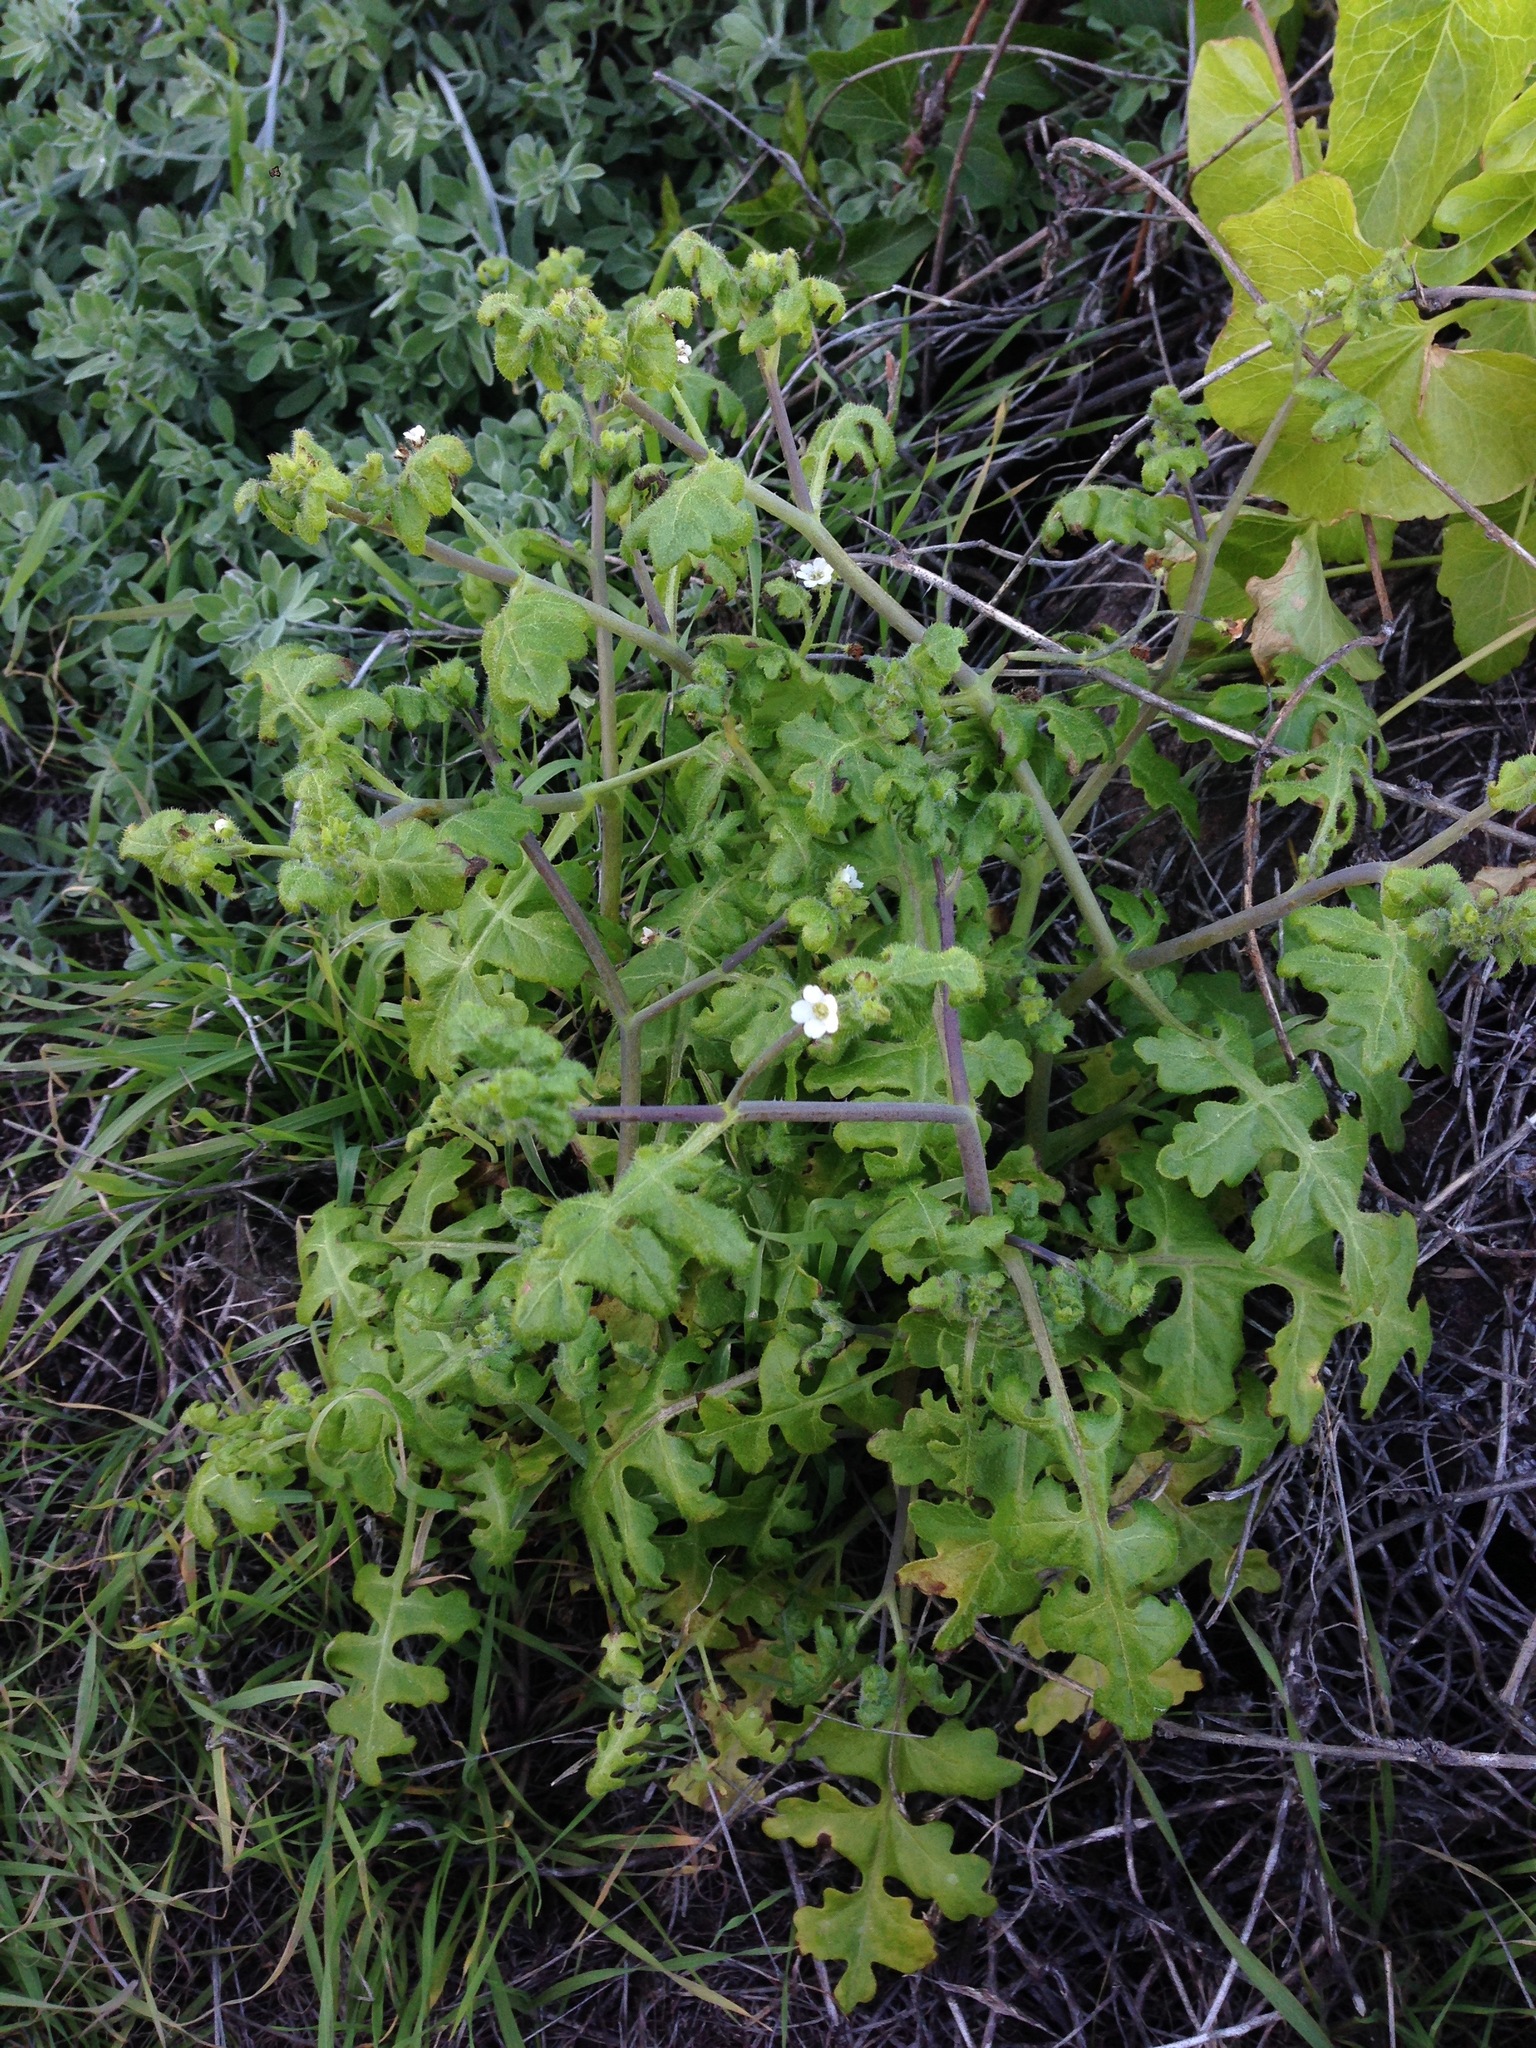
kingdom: Plantae
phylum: Tracheophyta
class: Magnoliopsida
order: Boraginales
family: Hydrophyllaceae
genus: Pholistoma
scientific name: Pholistoma racemosum
